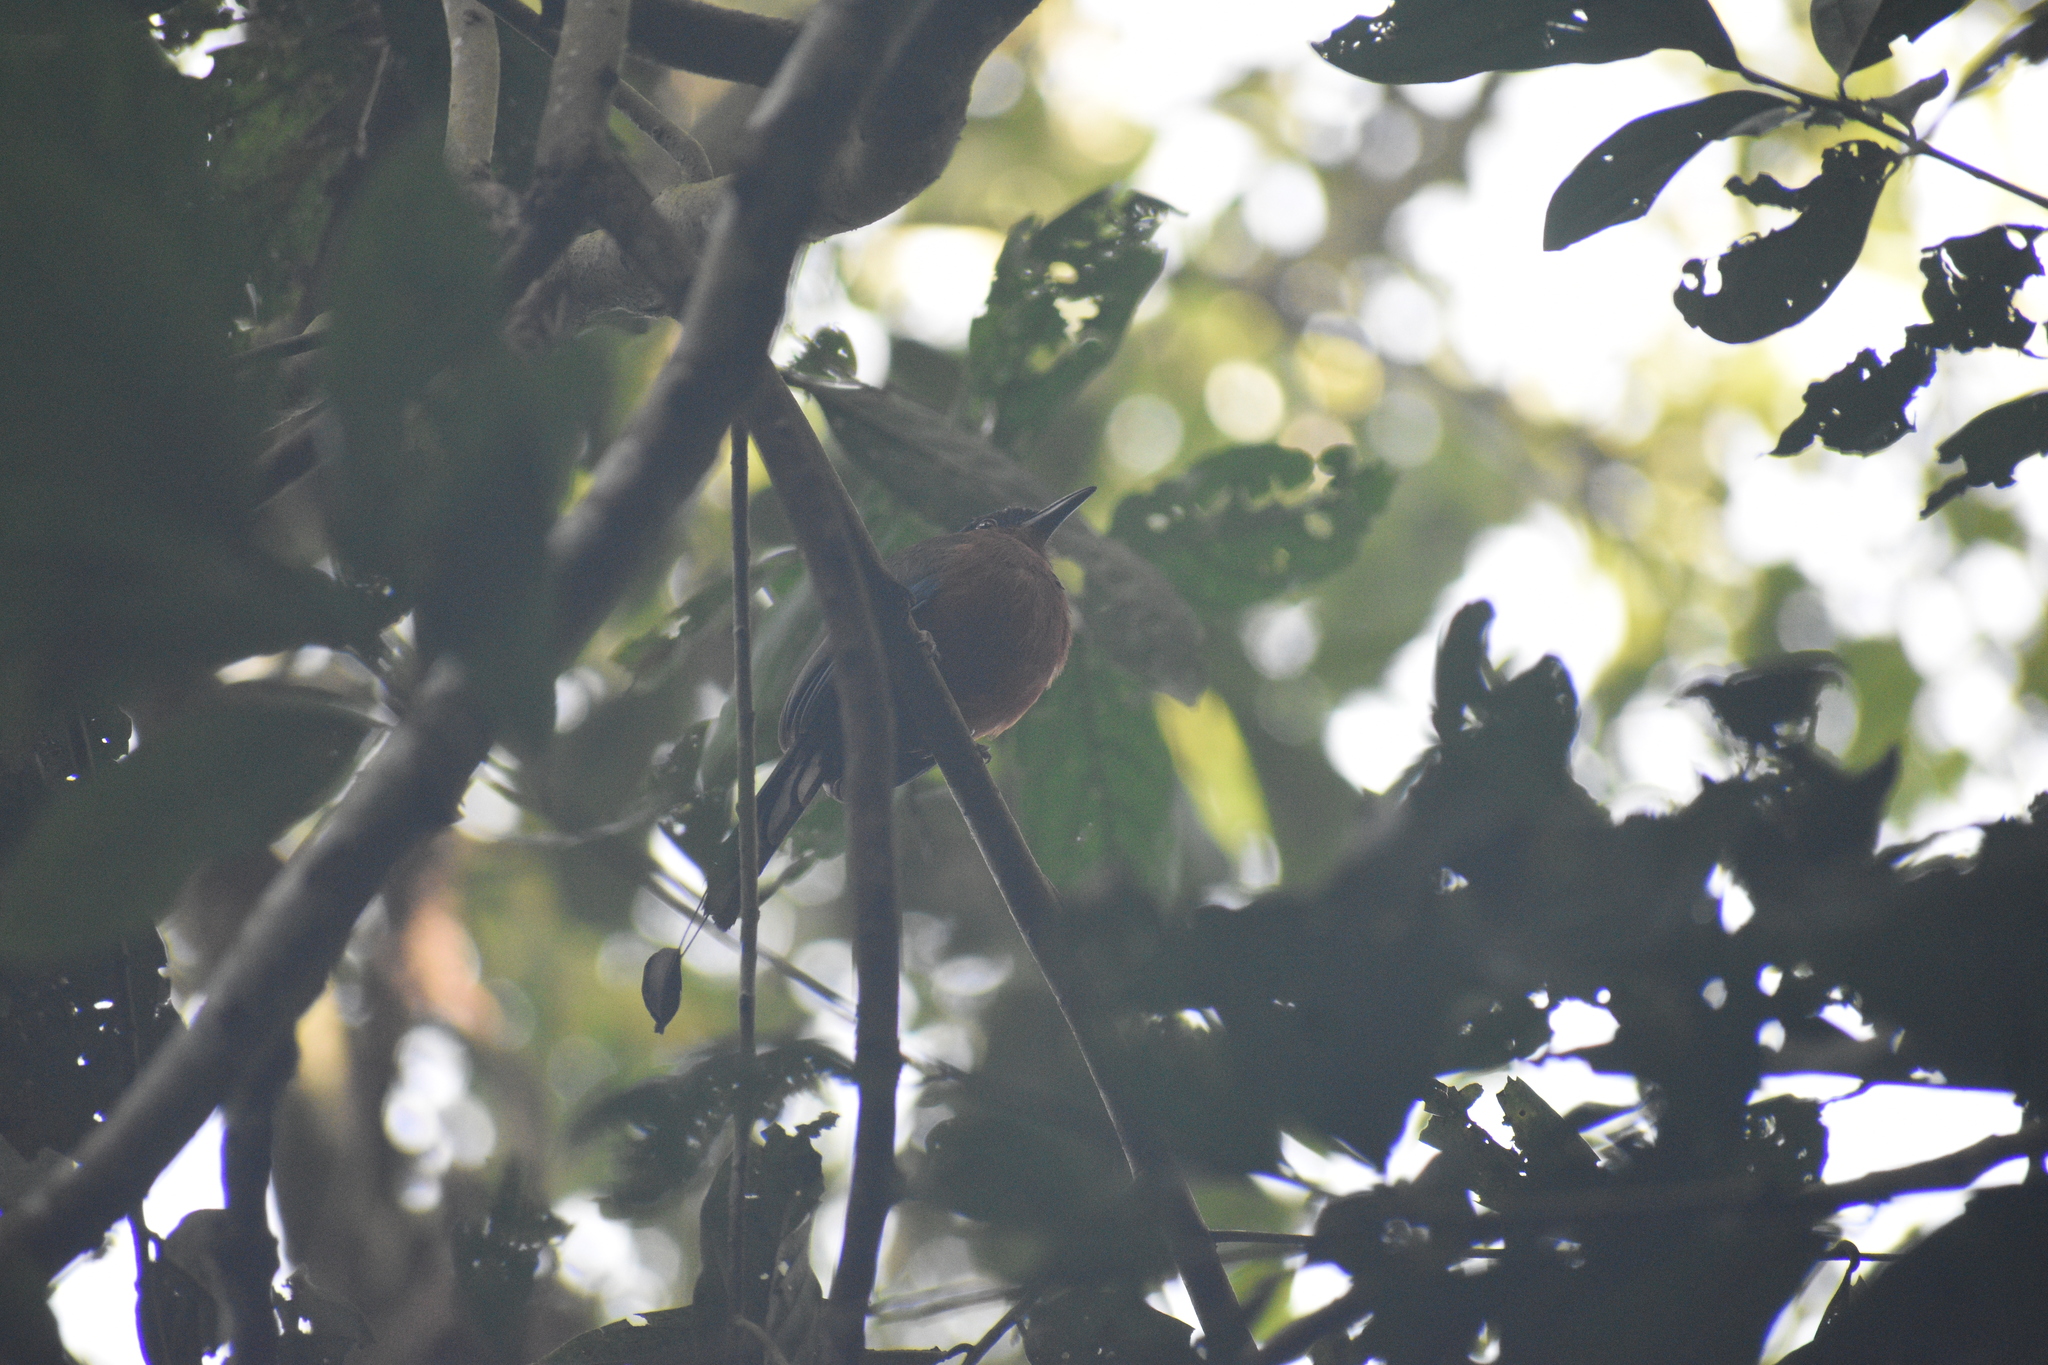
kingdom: Animalia
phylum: Chordata
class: Aves
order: Coraciiformes
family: Momotidae
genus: Momotus
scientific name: Momotus subrufescens
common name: Whooping motmot
